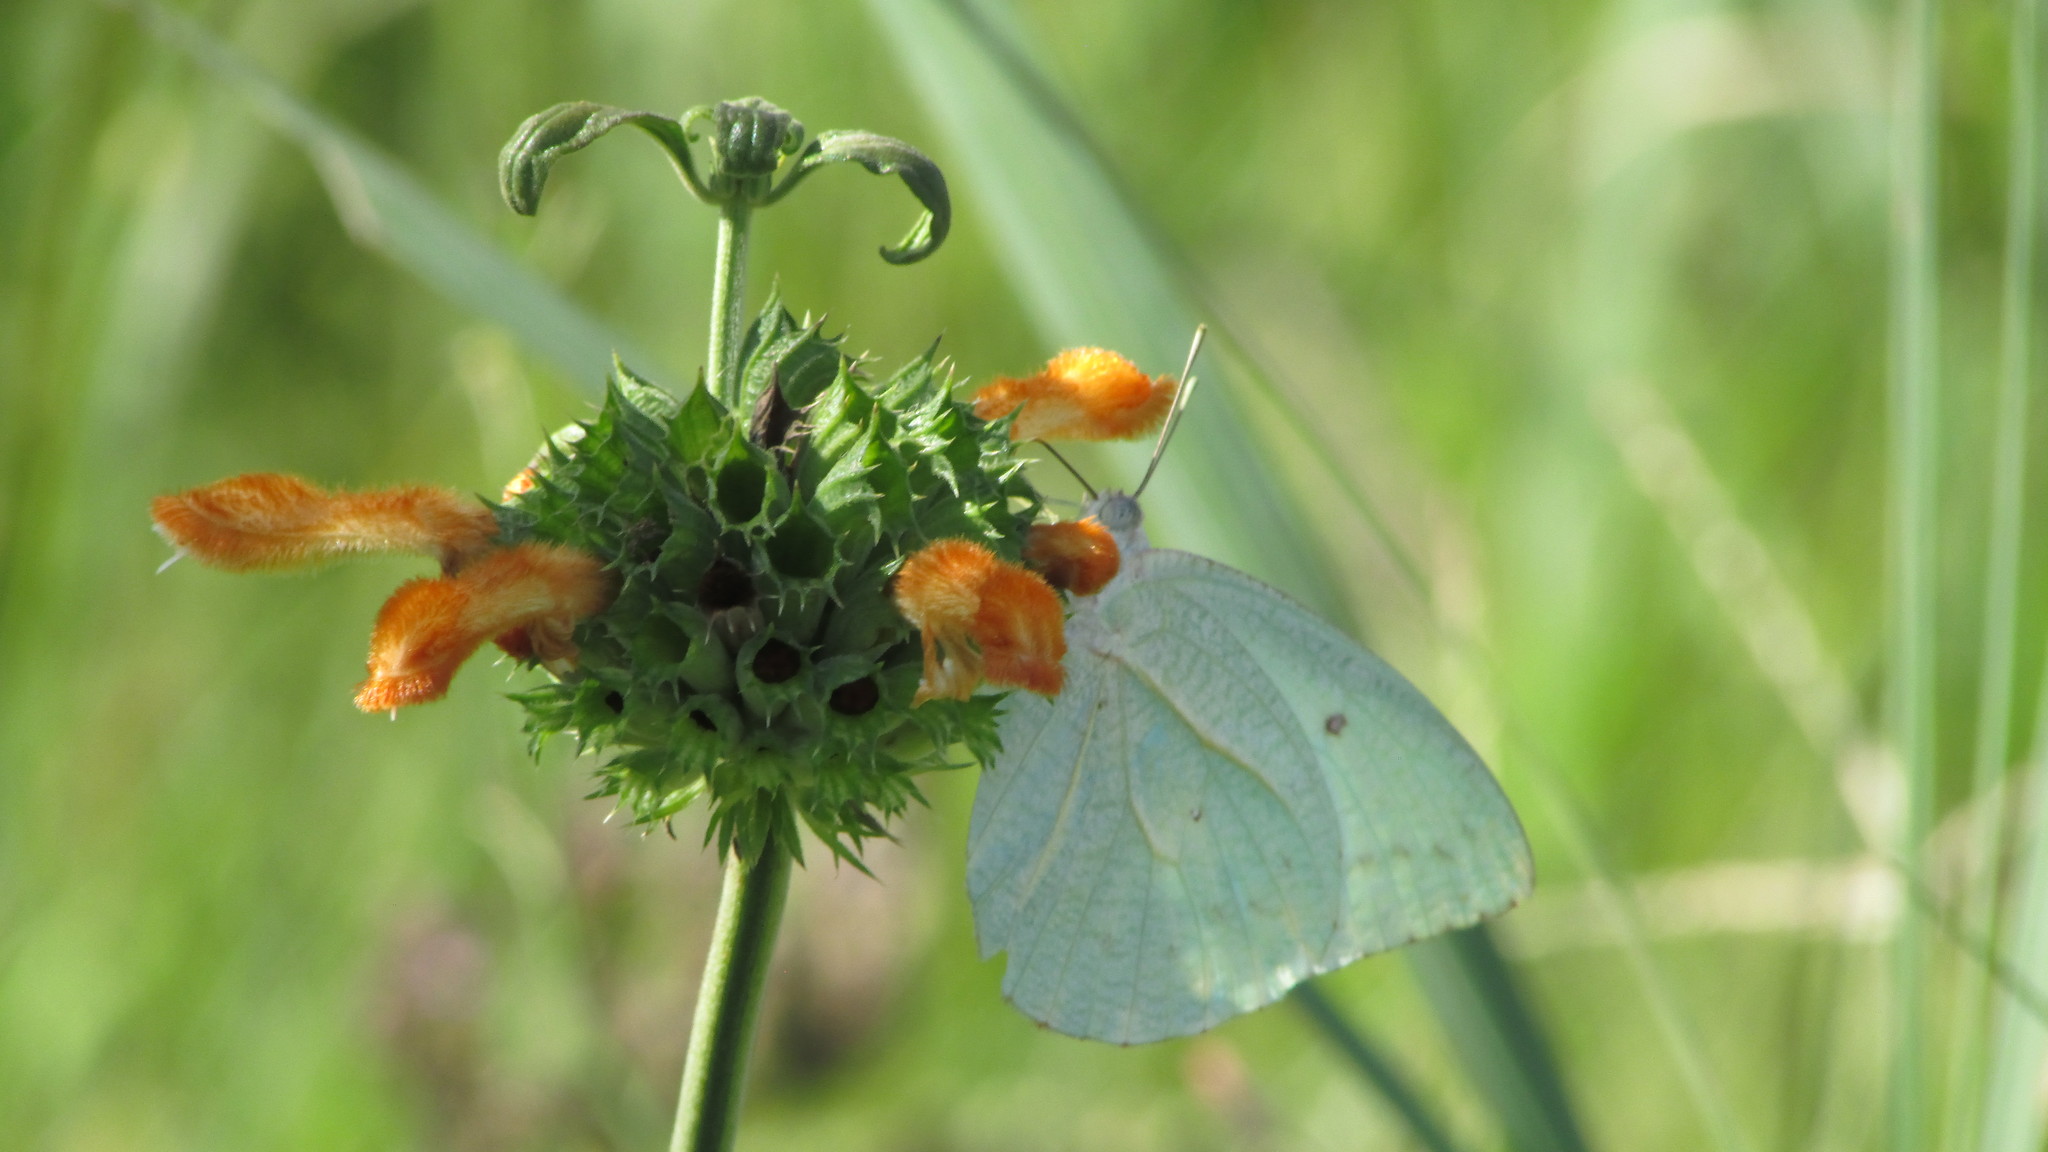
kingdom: Animalia
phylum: Arthropoda
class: Insecta
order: Lepidoptera
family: Pieridae
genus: Catopsilia
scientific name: Catopsilia florella
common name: African migrant
